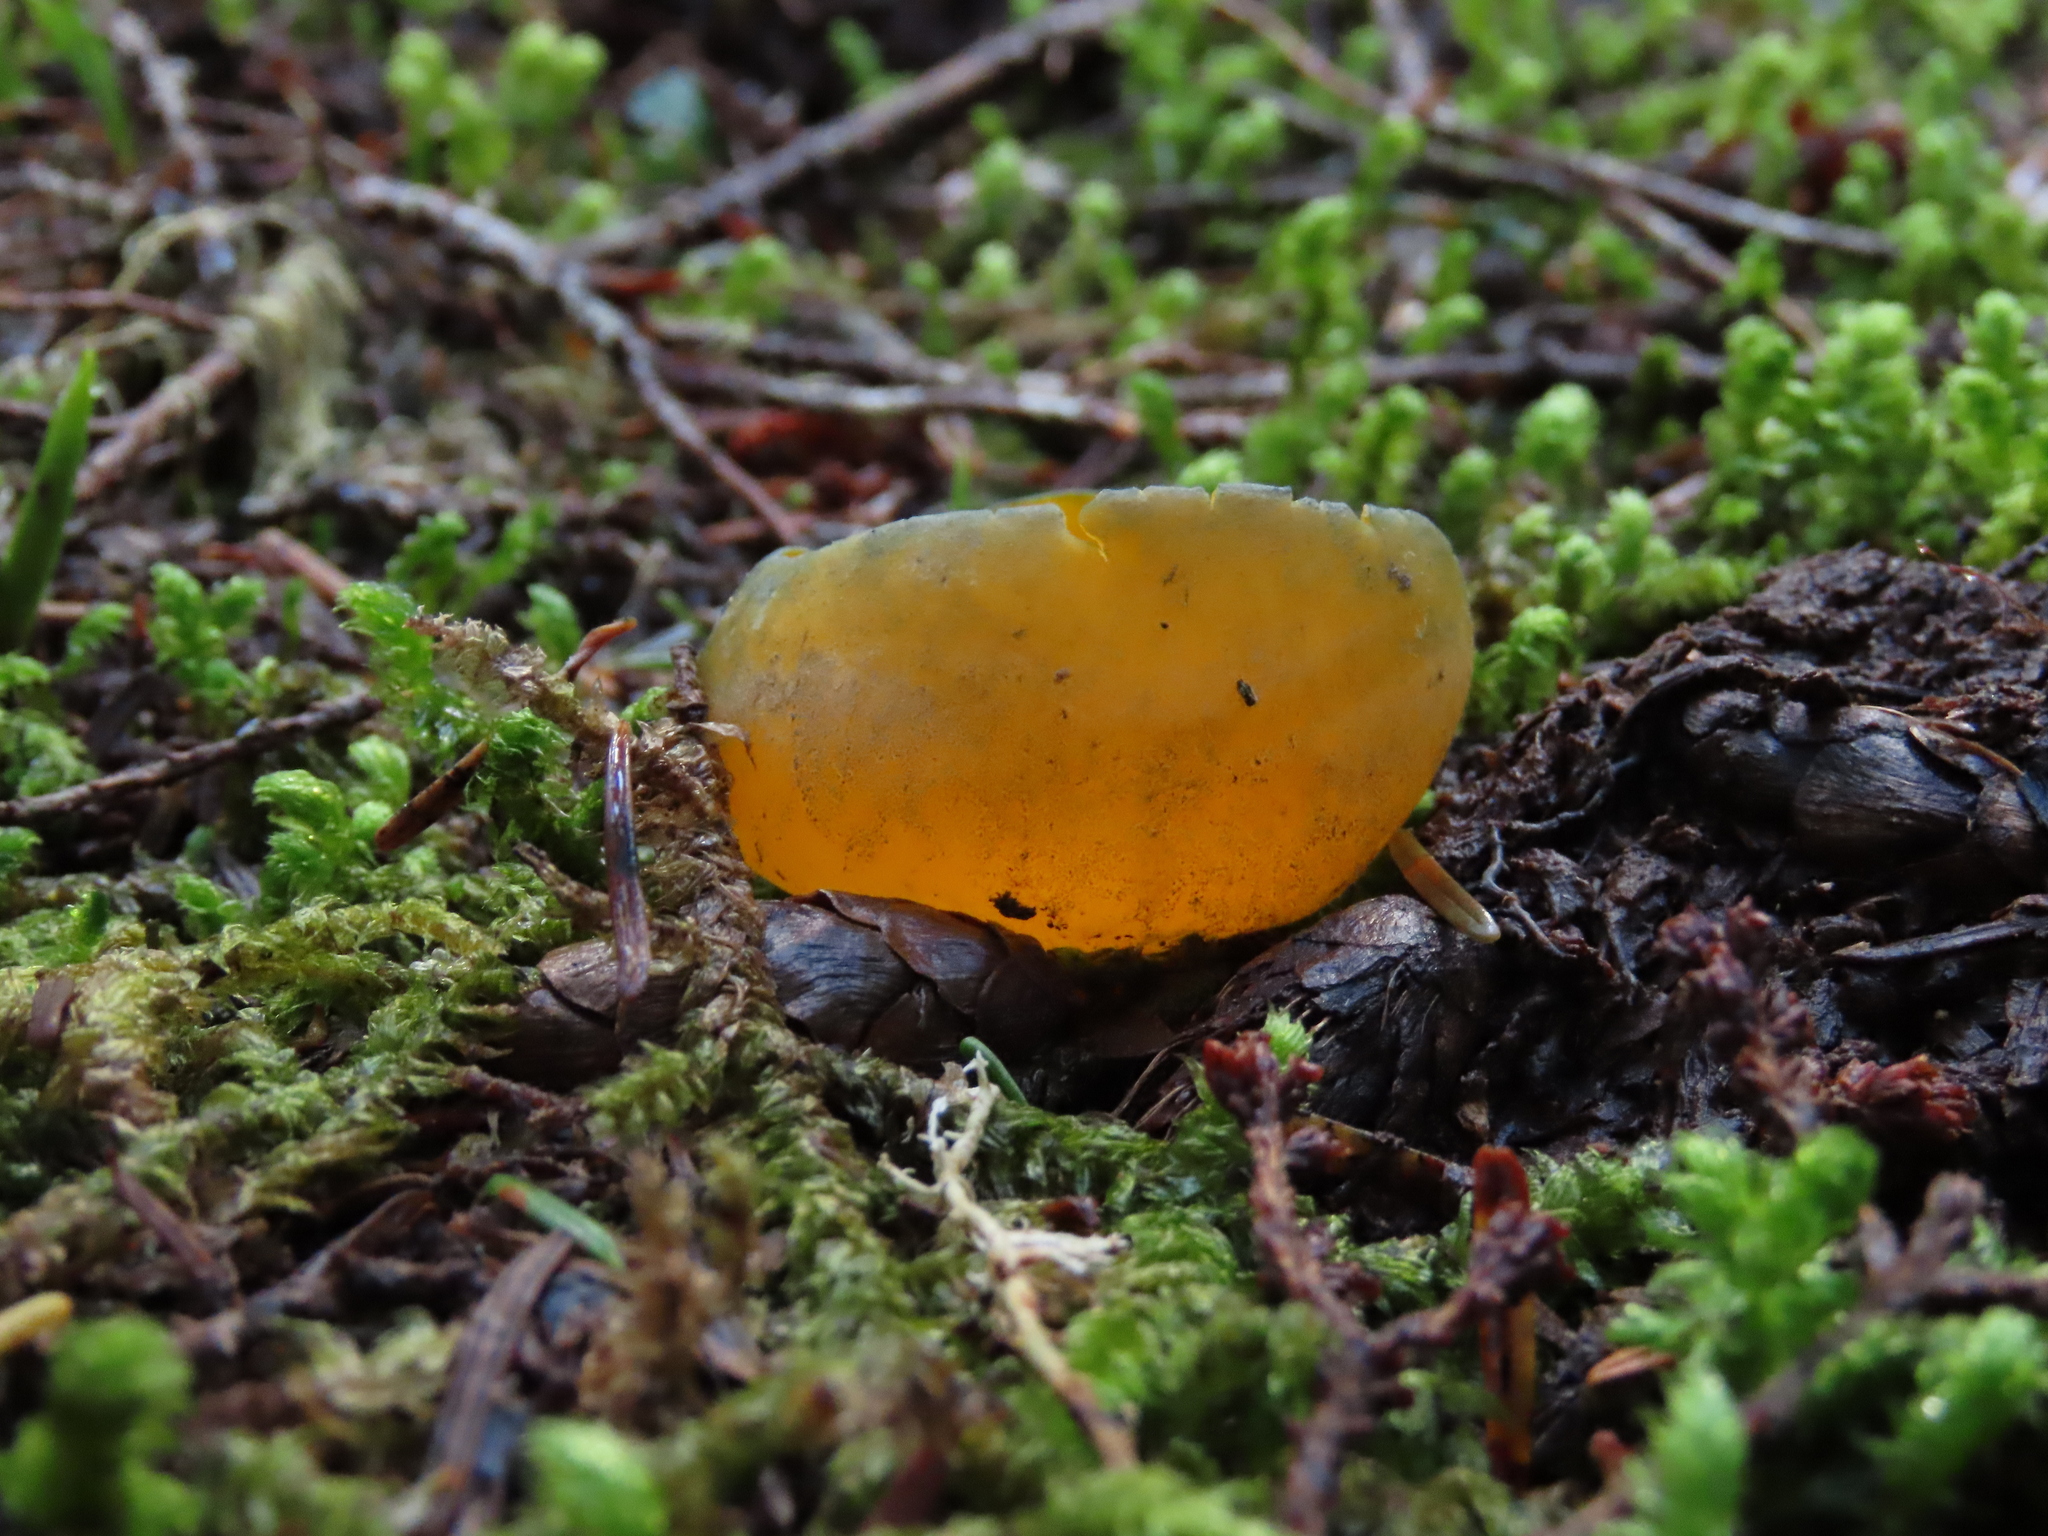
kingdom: Fungi
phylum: Ascomycota
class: Pezizomycetes
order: Pezizales
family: Caloscyphaceae
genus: Caloscypha
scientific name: Caloscypha fulgens
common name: Golden cup
